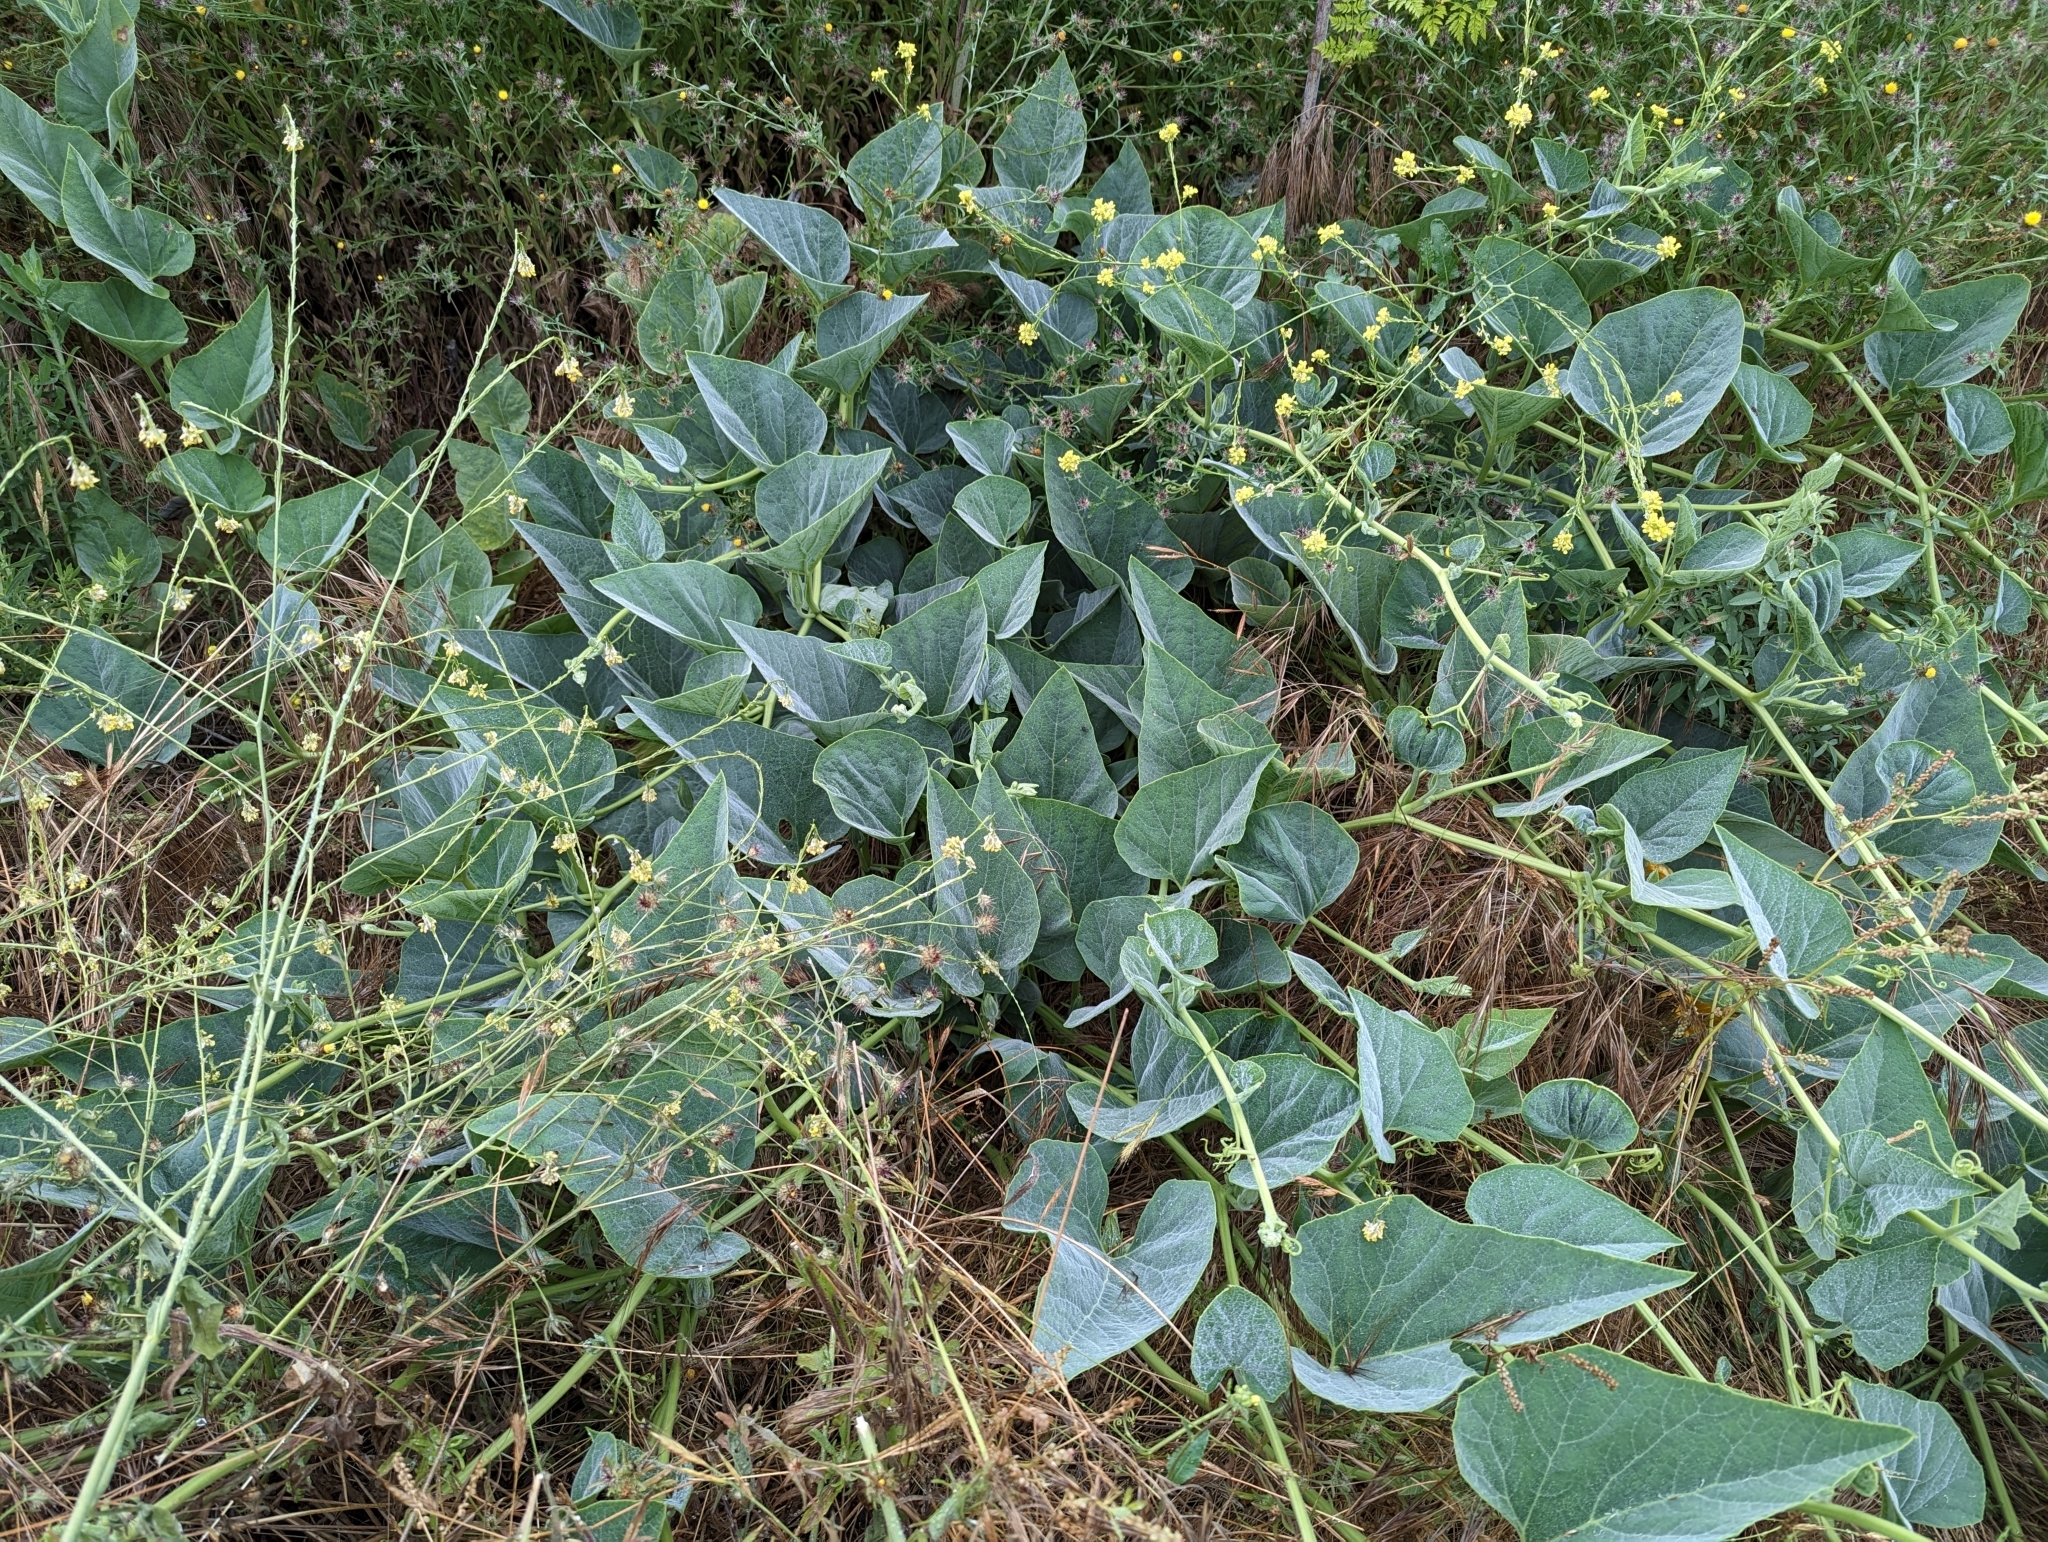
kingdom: Plantae
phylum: Tracheophyta
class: Magnoliopsida
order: Cucurbitales
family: Cucurbitaceae
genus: Cucurbita
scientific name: Cucurbita foetidissima
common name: Buffalo gourd
